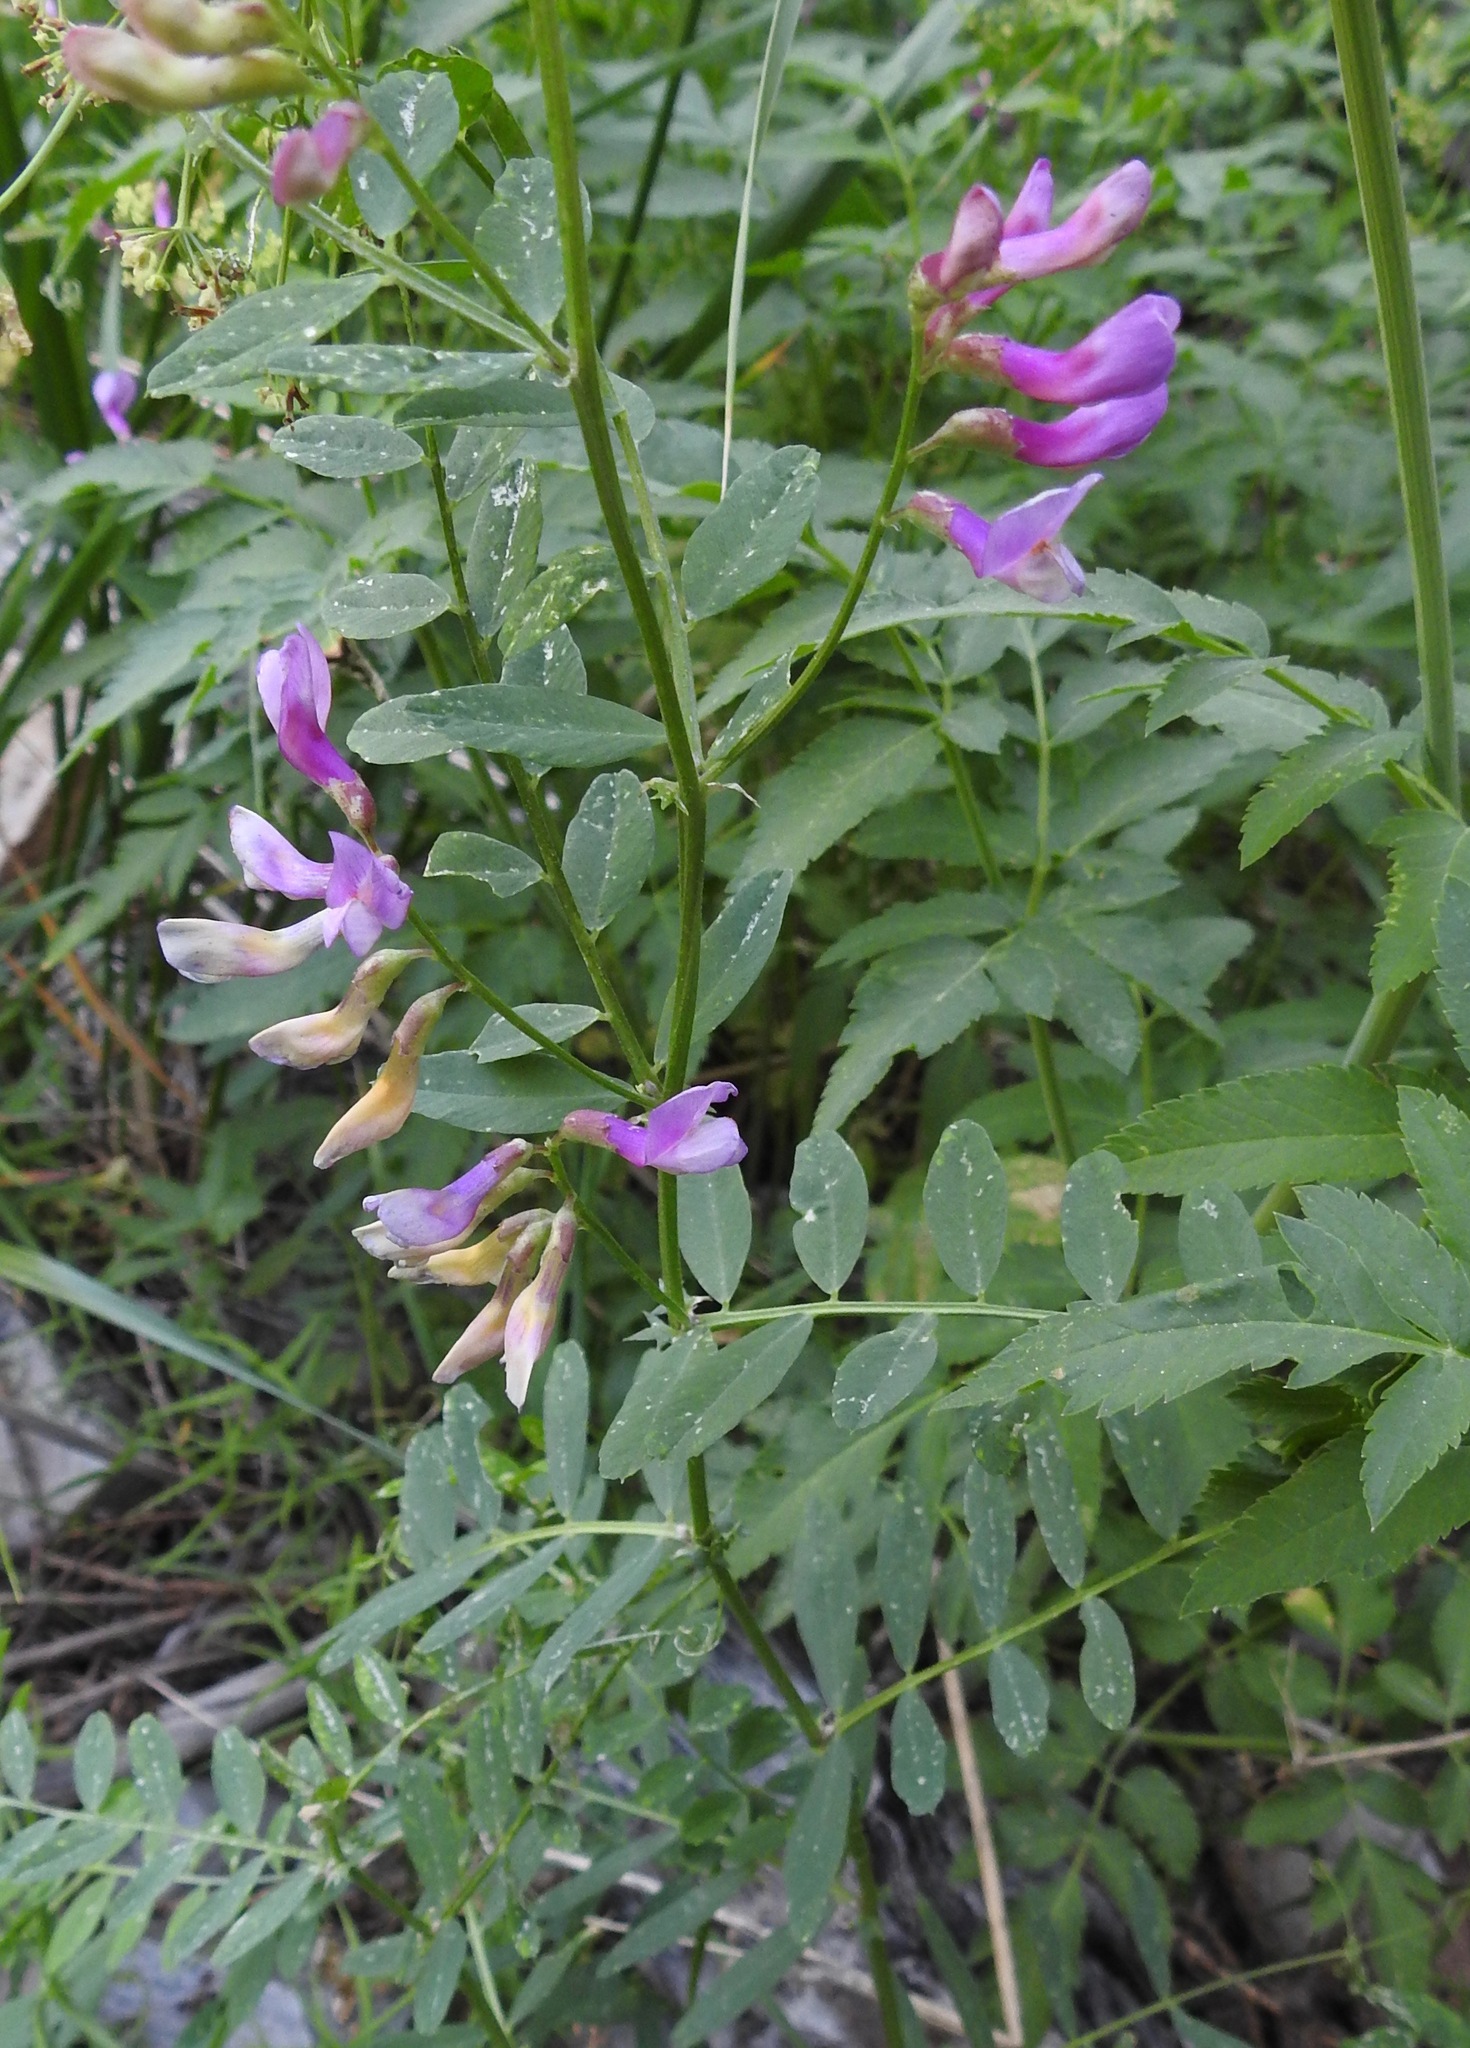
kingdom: Plantae
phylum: Tracheophyta
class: Magnoliopsida
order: Fabales
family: Fabaceae
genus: Vicia
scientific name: Vicia americana
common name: American vetch
